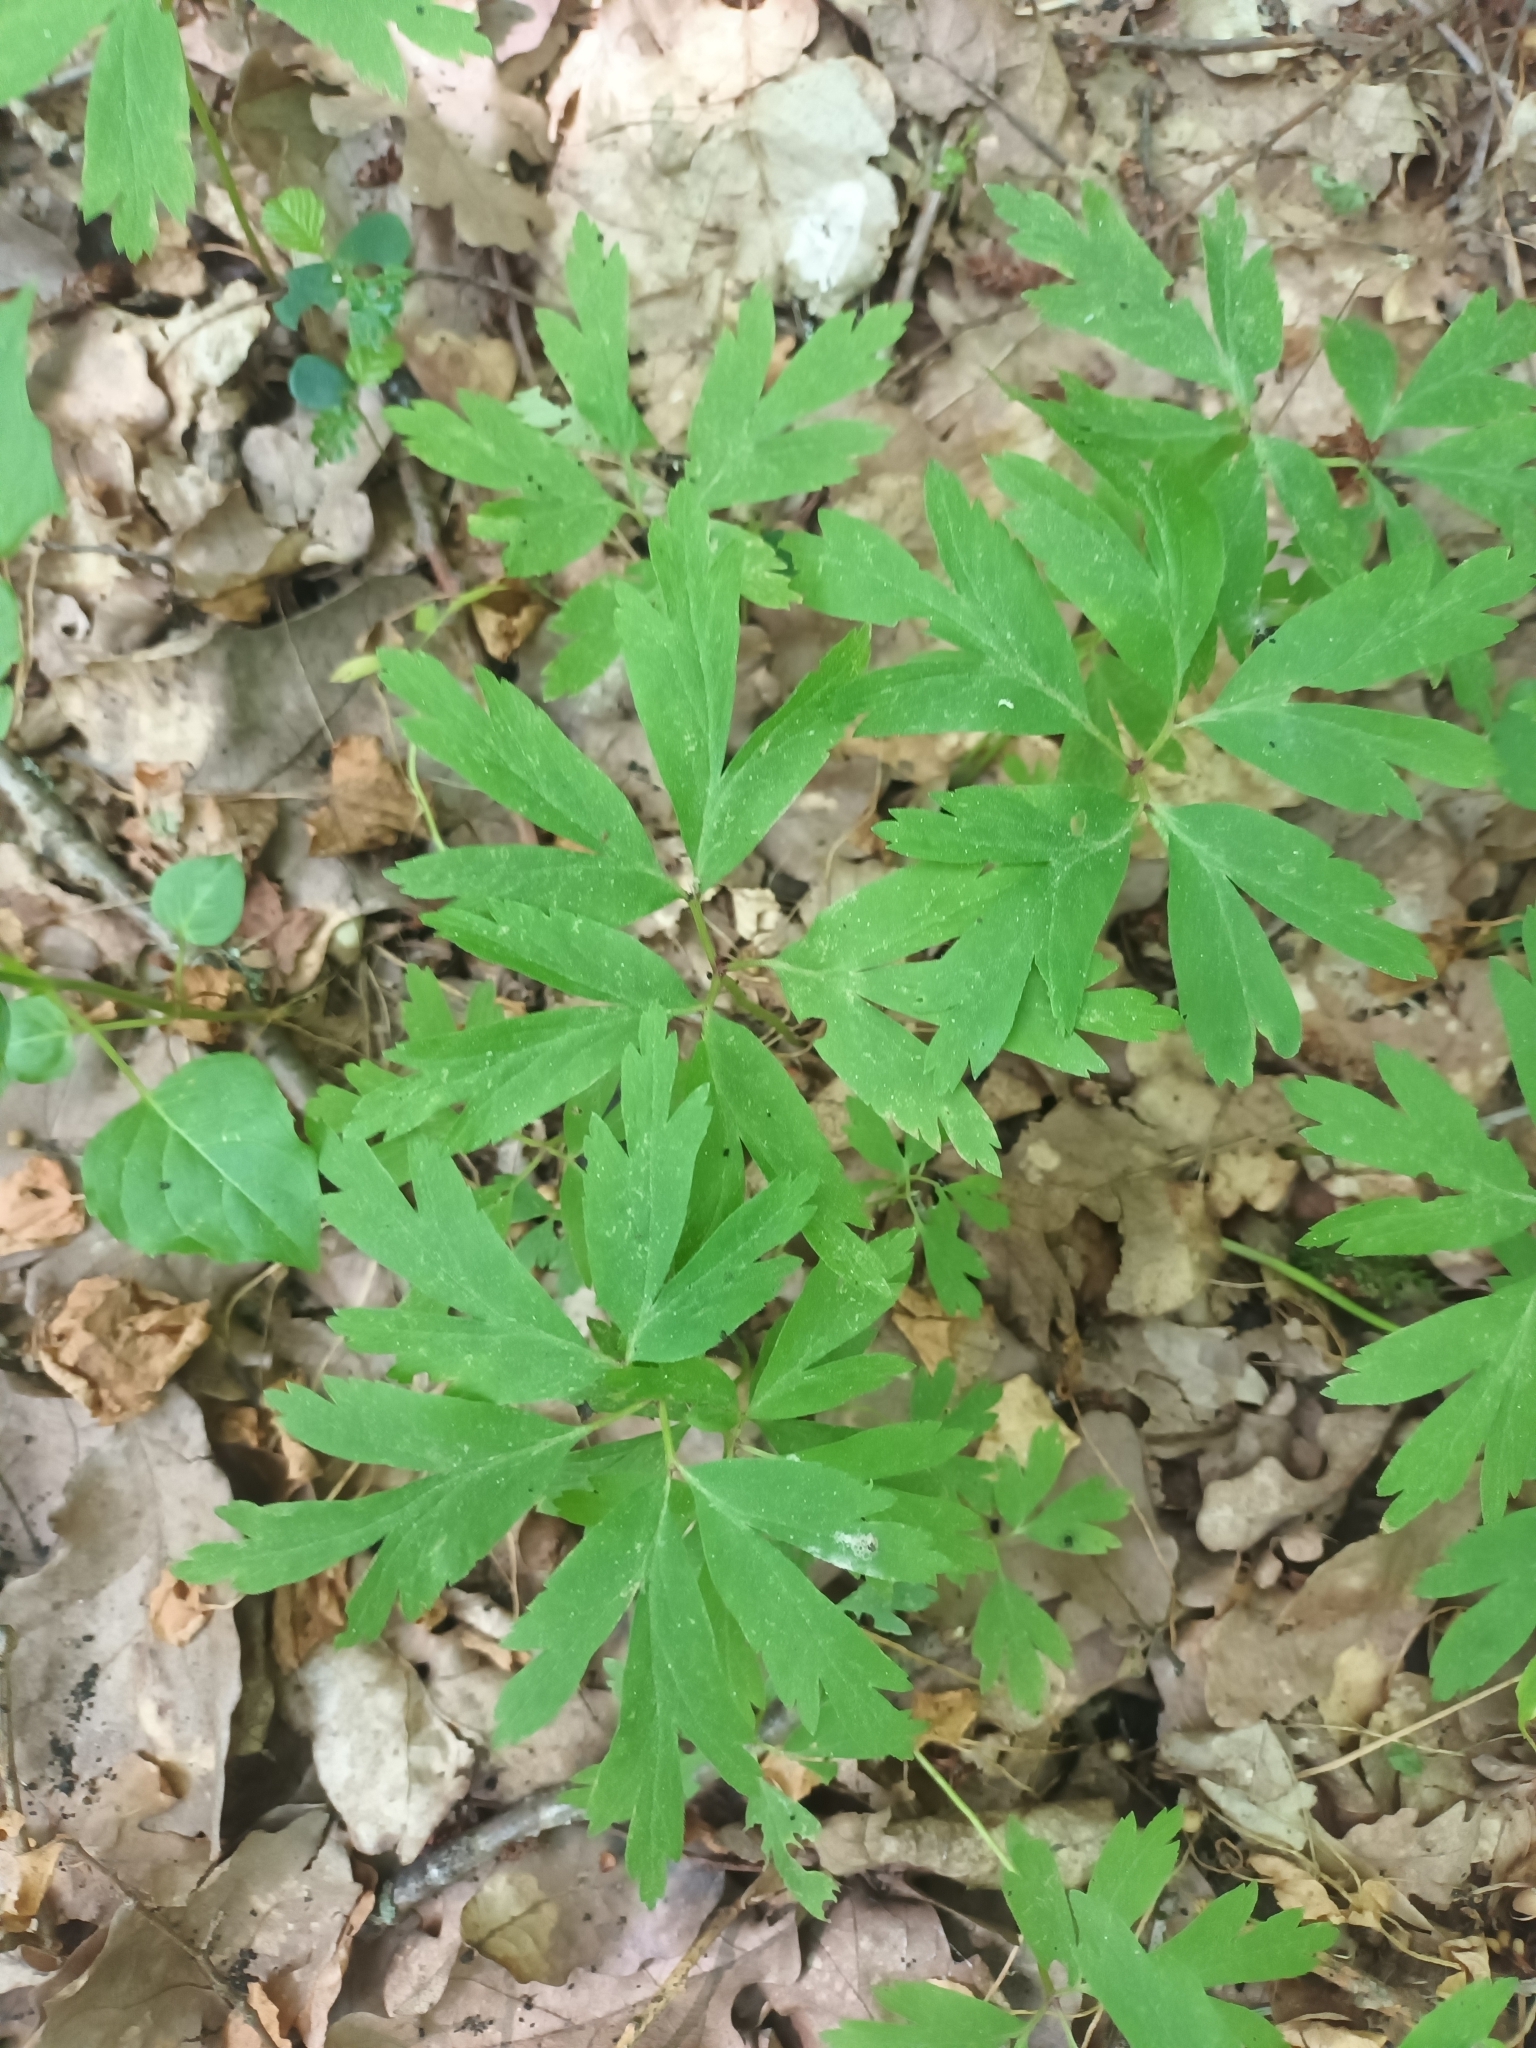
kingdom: Plantae
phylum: Tracheophyta
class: Magnoliopsida
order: Ranunculales
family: Ranunculaceae
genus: Anemone
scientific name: Anemone nemorosa
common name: Wood anemone
